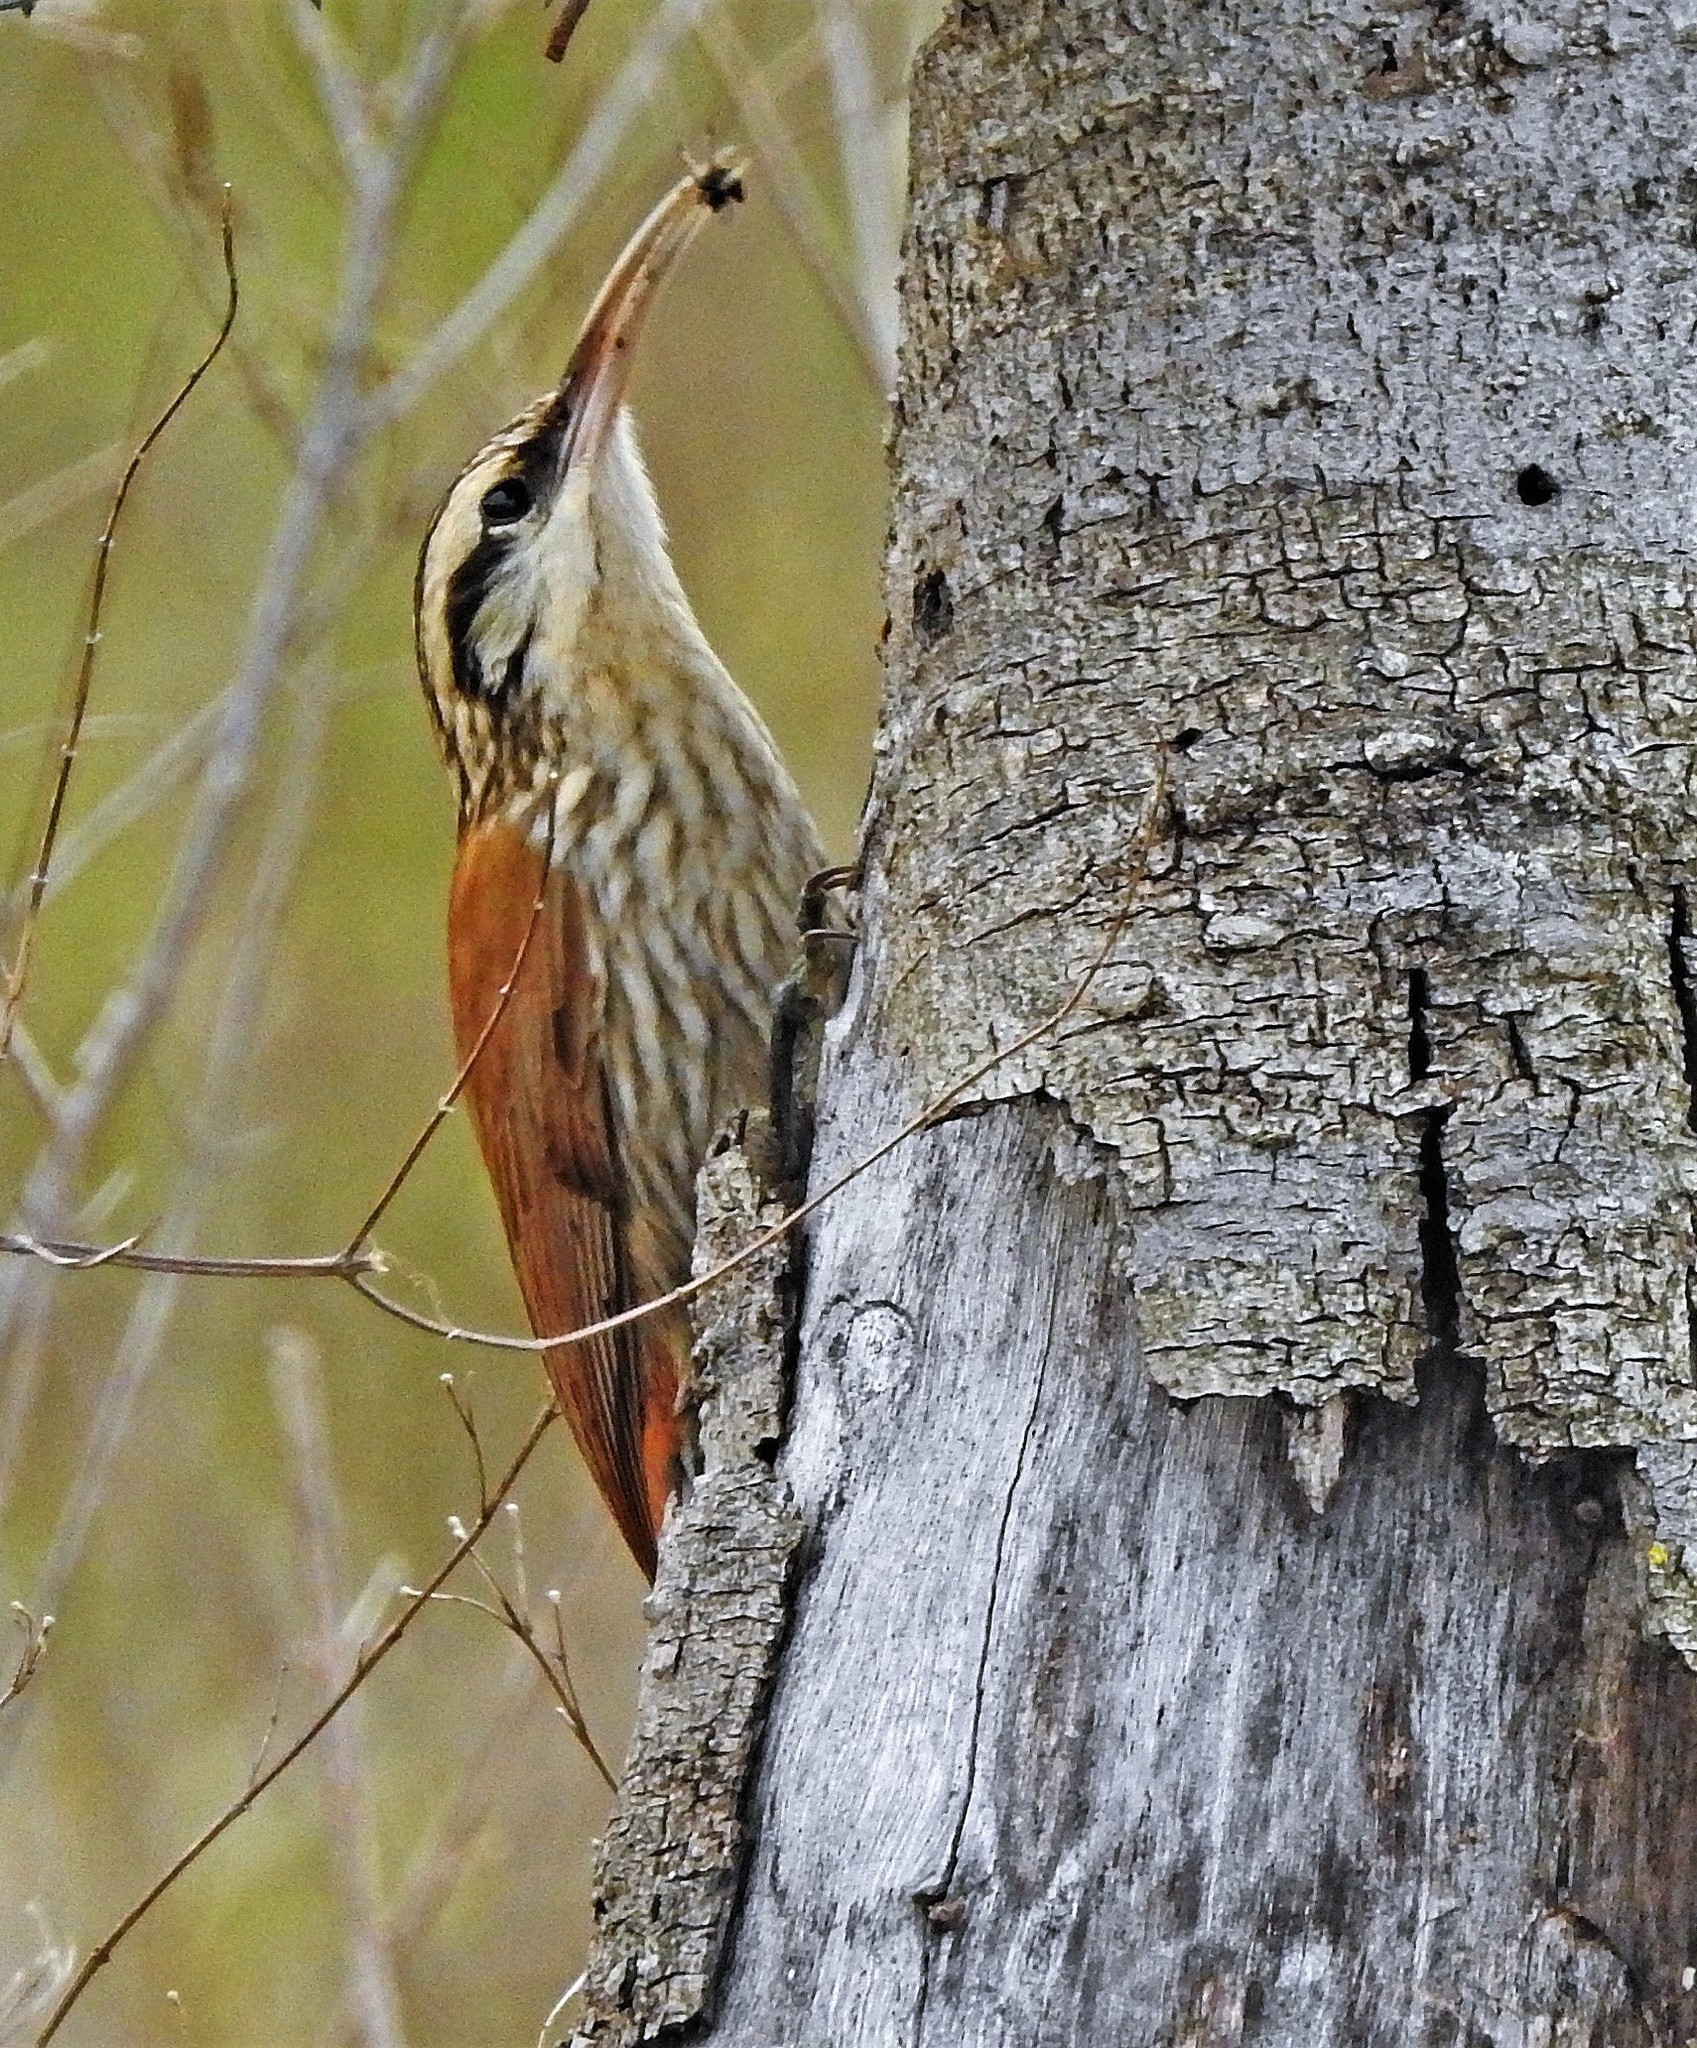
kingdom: Animalia
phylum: Chordata
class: Aves
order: Passeriformes
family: Furnariidae
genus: Lepidocolaptes
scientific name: Lepidocolaptes angustirostris
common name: Narrow-billed woodcreeper
